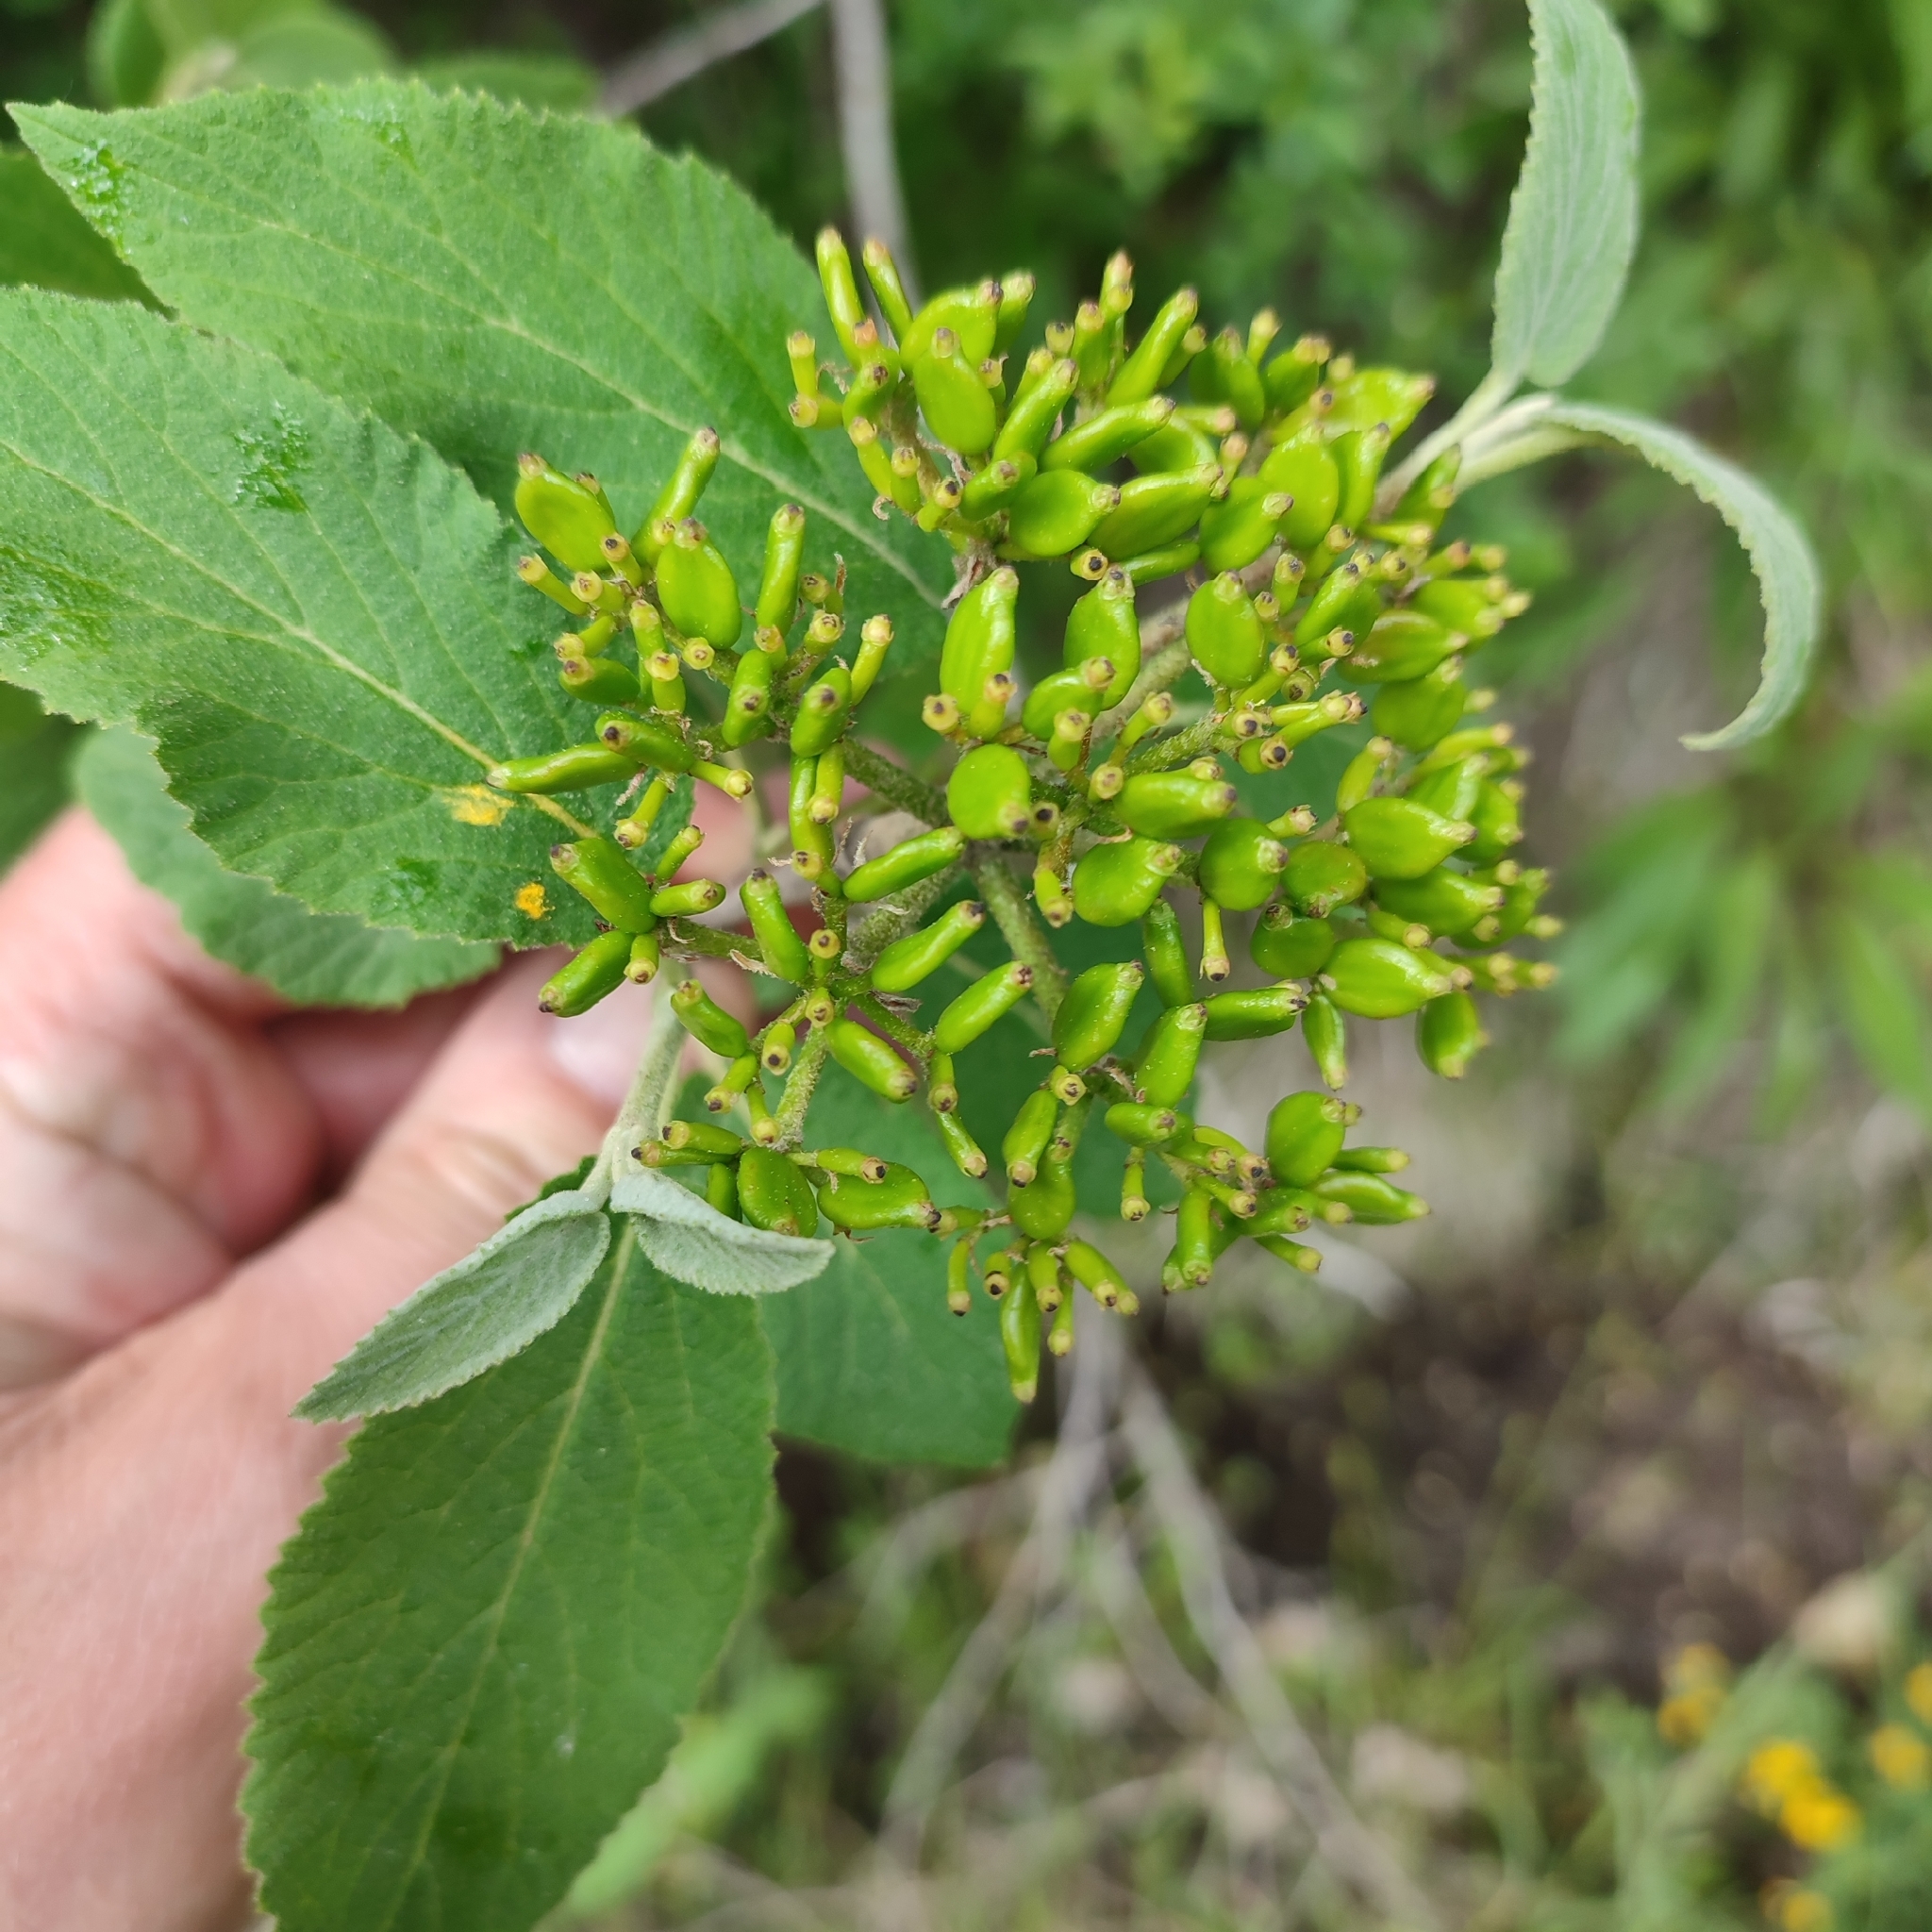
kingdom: Plantae
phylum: Tracheophyta
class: Magnoliopsida
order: Dipsacales
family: Viburnaceae
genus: Viburnum
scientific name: Viburnum lantana
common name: Wayfaring tree
